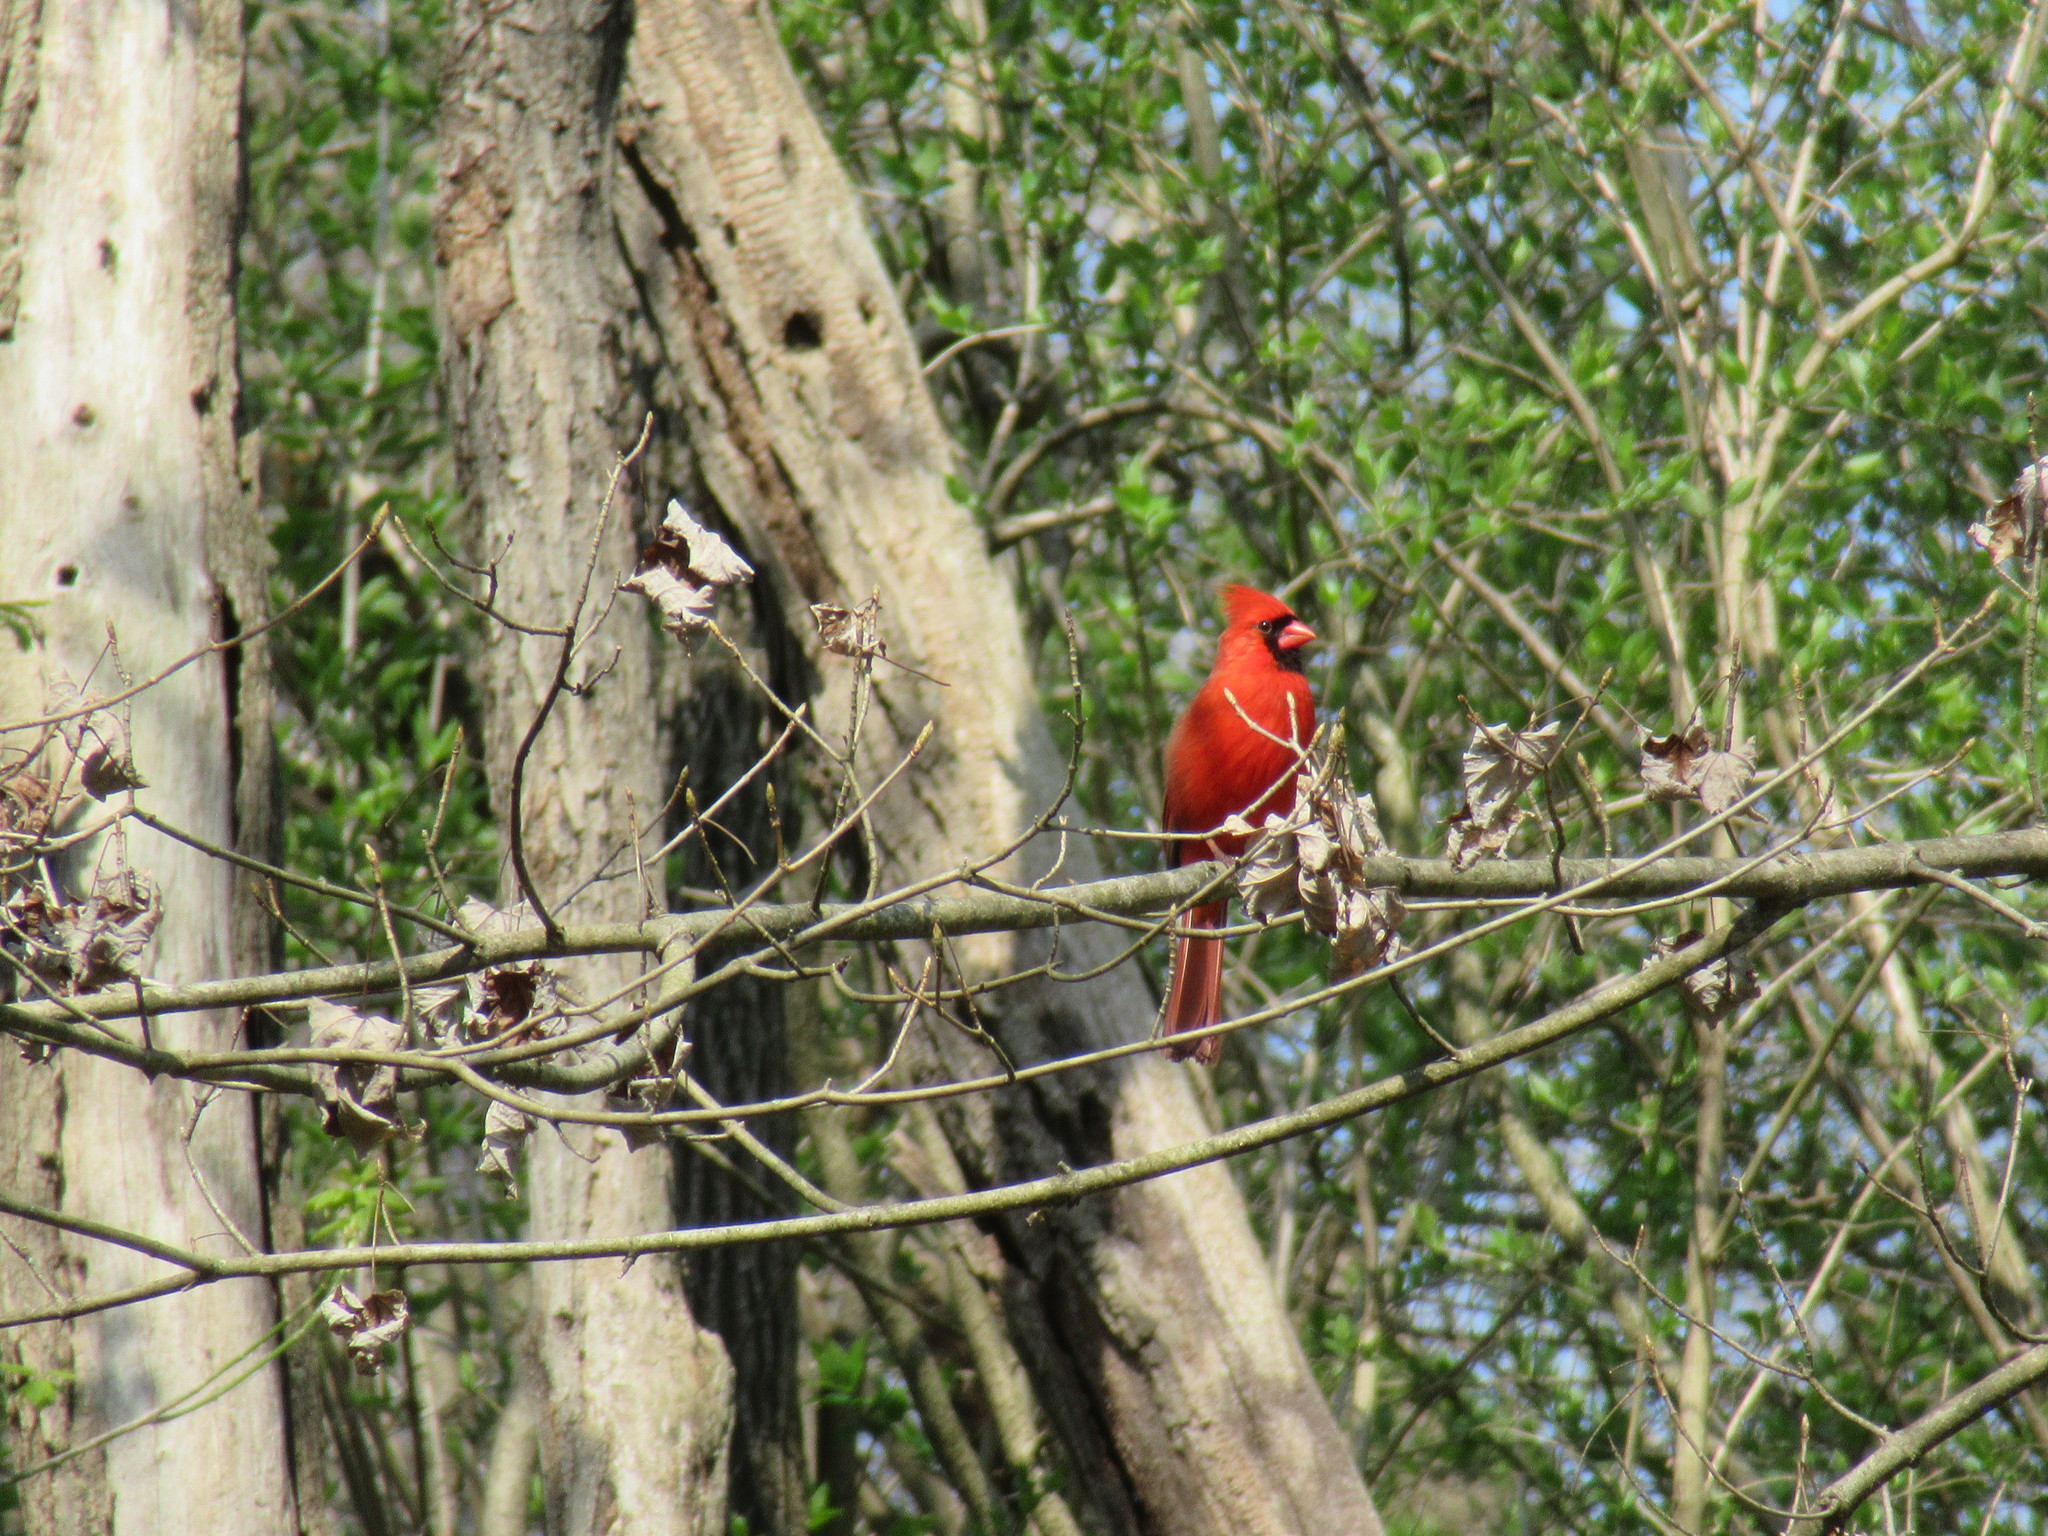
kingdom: Animalia
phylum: Chordata
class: Aves
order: Passeriformes
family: Cardinalidae
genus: Cardinalis
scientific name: Cardinalis cardinalis
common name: Northern cardinal
